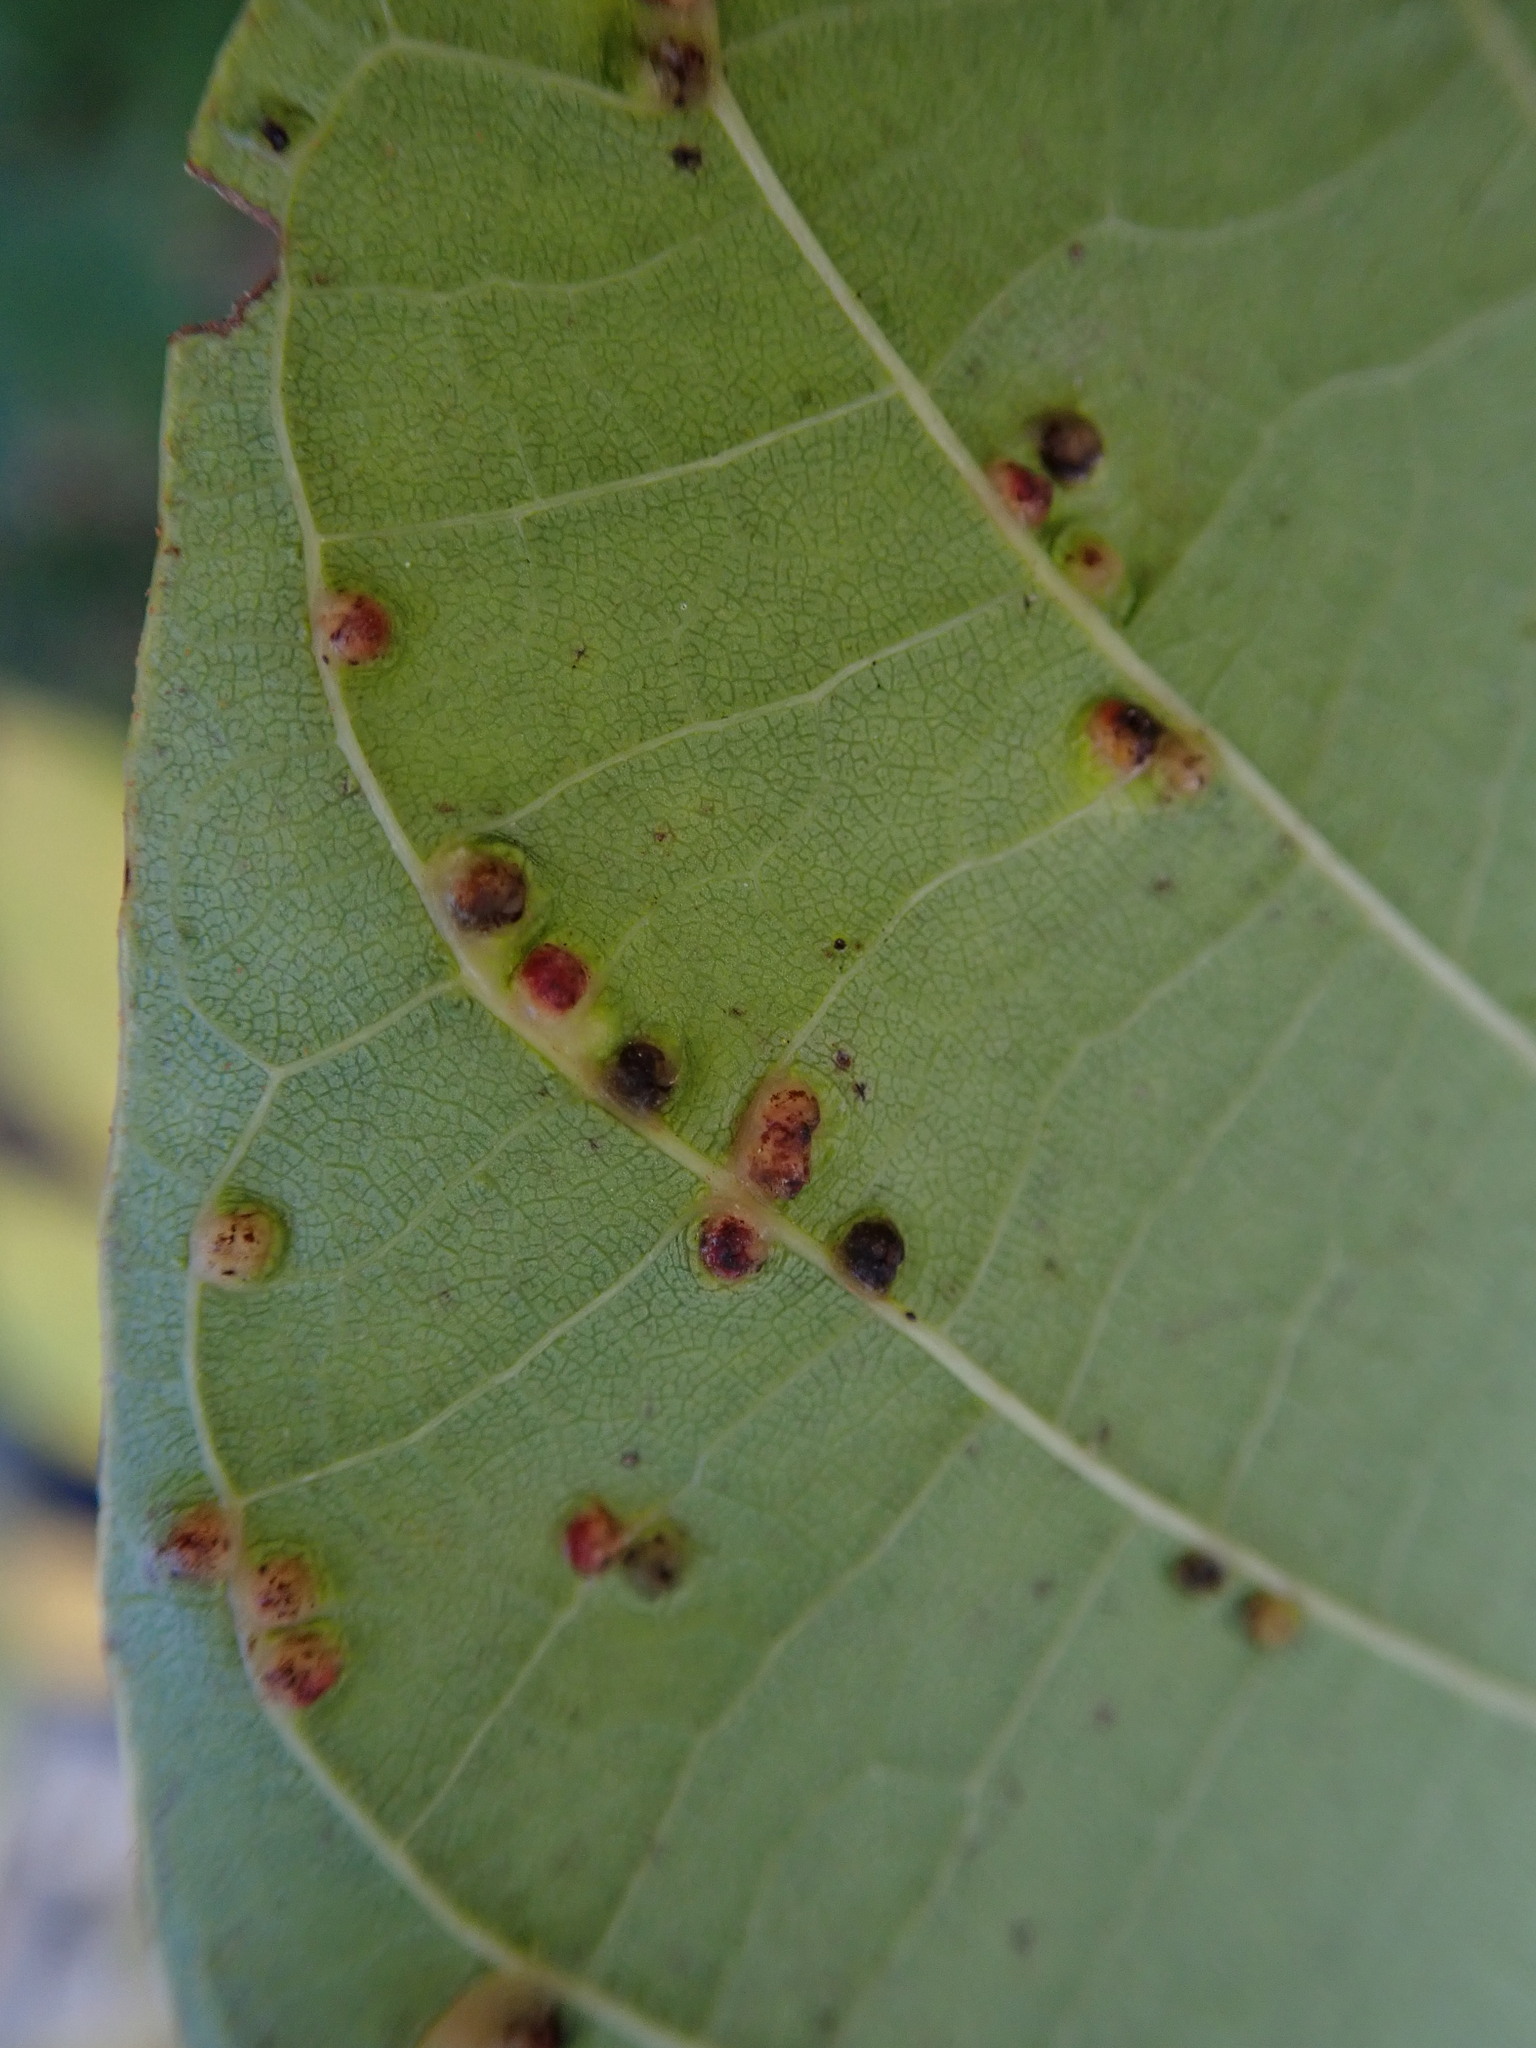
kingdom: Animalia
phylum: Arthropoda
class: Arachnida
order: Trombidiformes
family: Eriophyidae
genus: Aceria
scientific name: Aceria tristriata
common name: Persian walnut leaf blister mite
